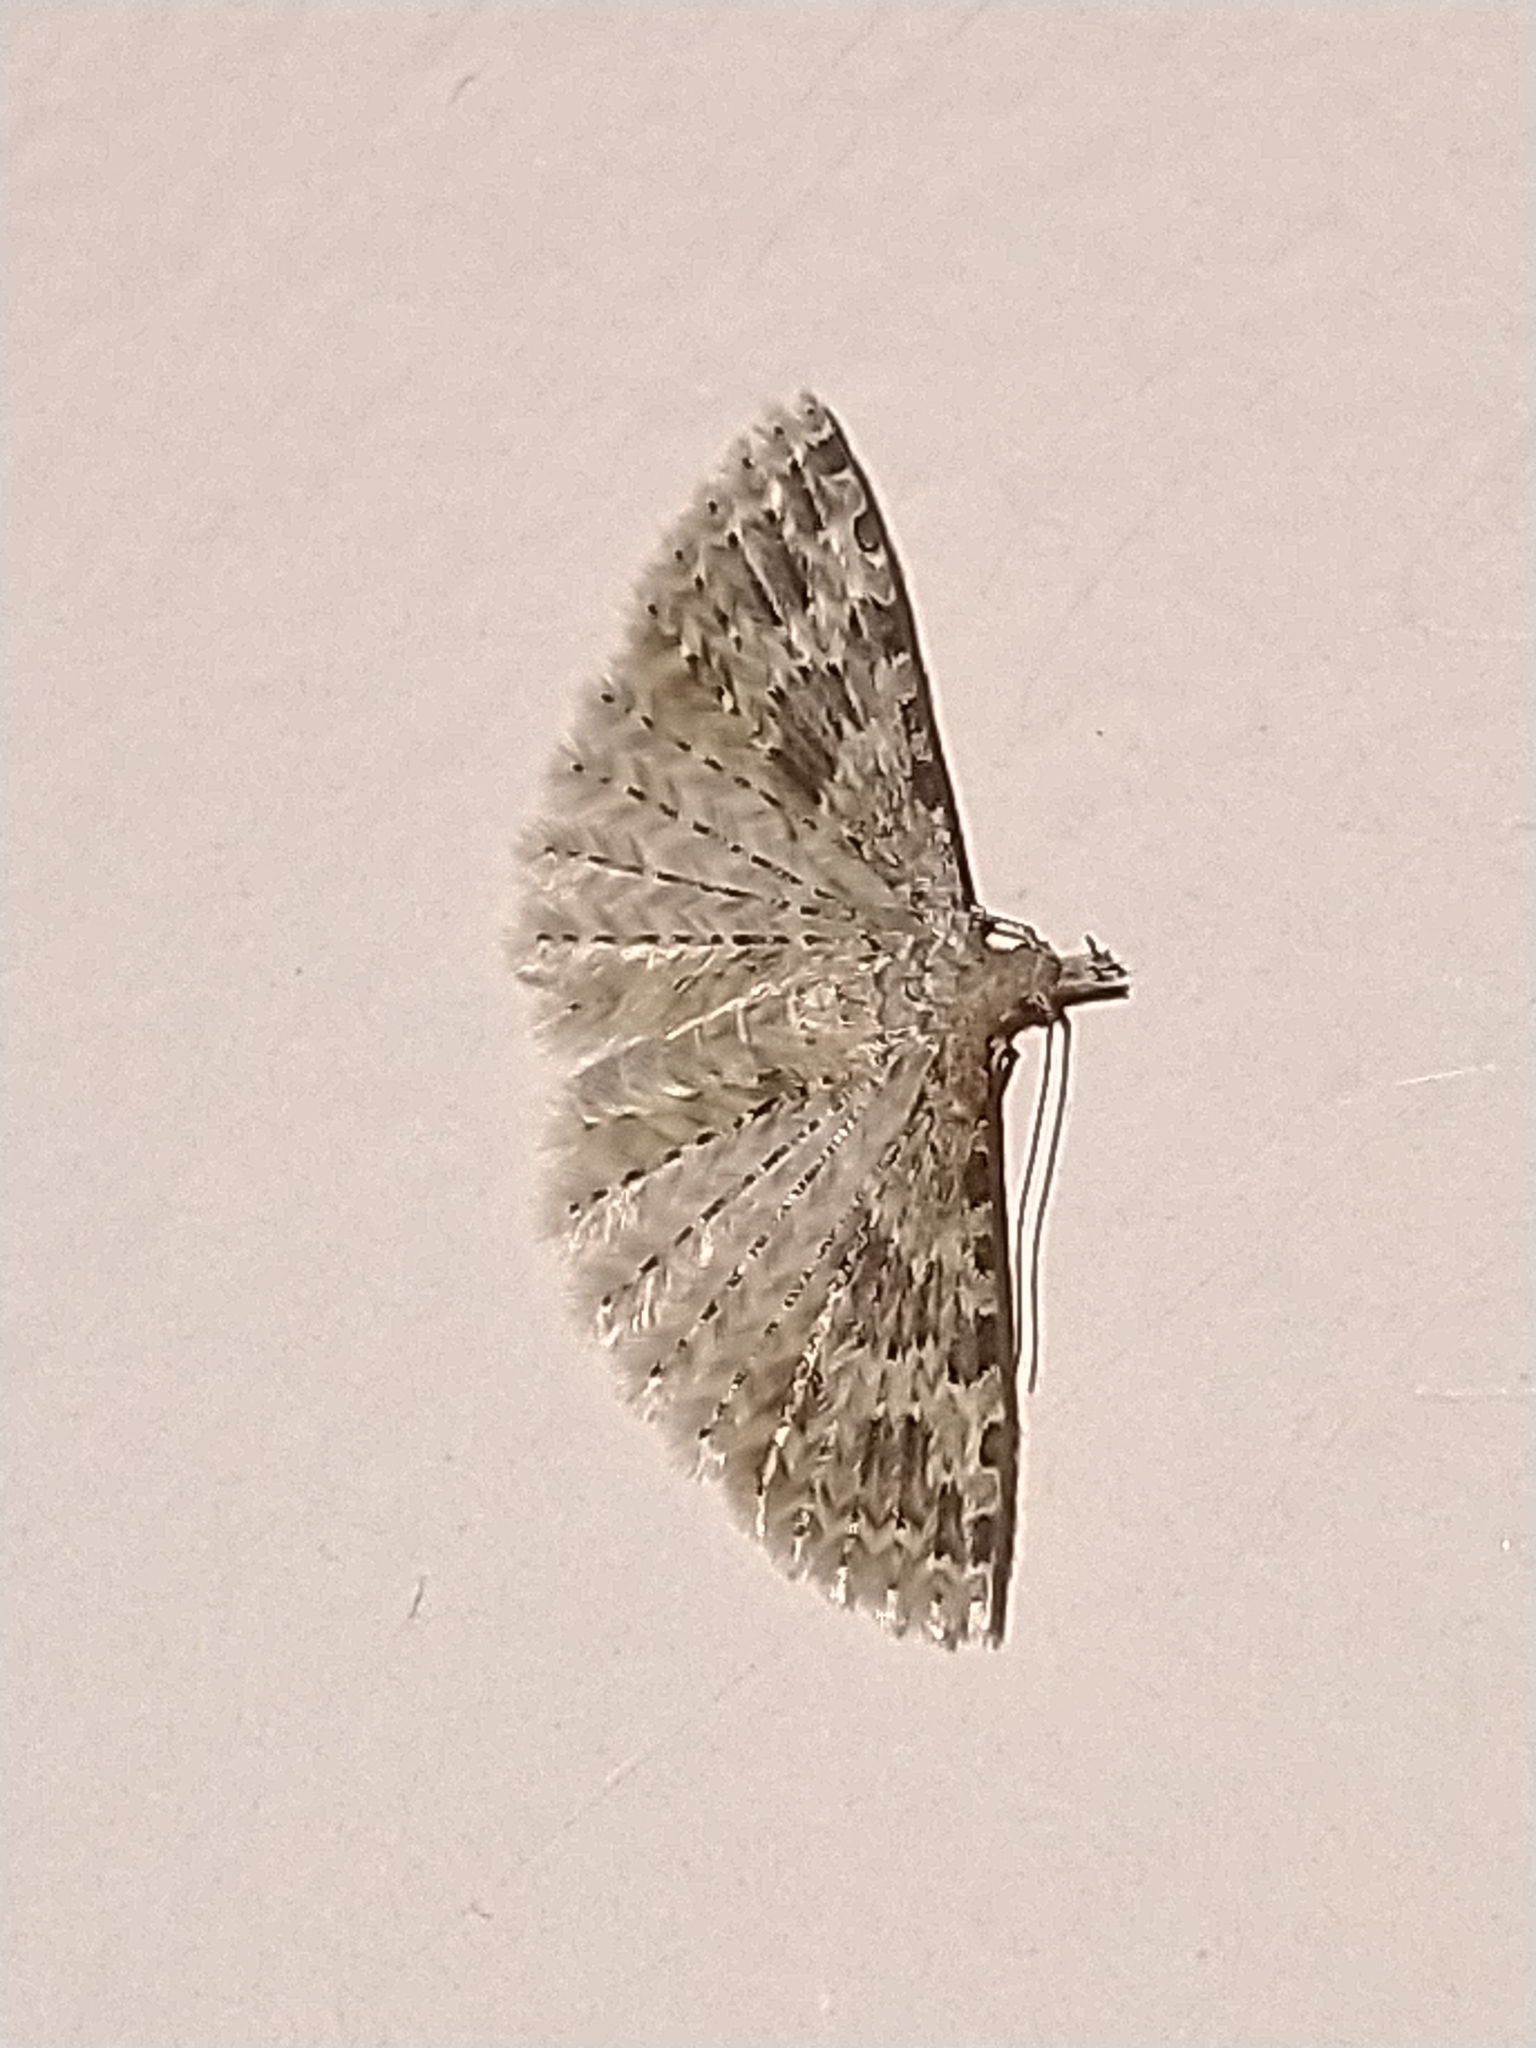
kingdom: Animalia
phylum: Arthropoda
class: Insecta
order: Lepidoptera
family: Alucitidae
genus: Alucita
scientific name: Alucita hexadactyla
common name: Twenty-plume moth
